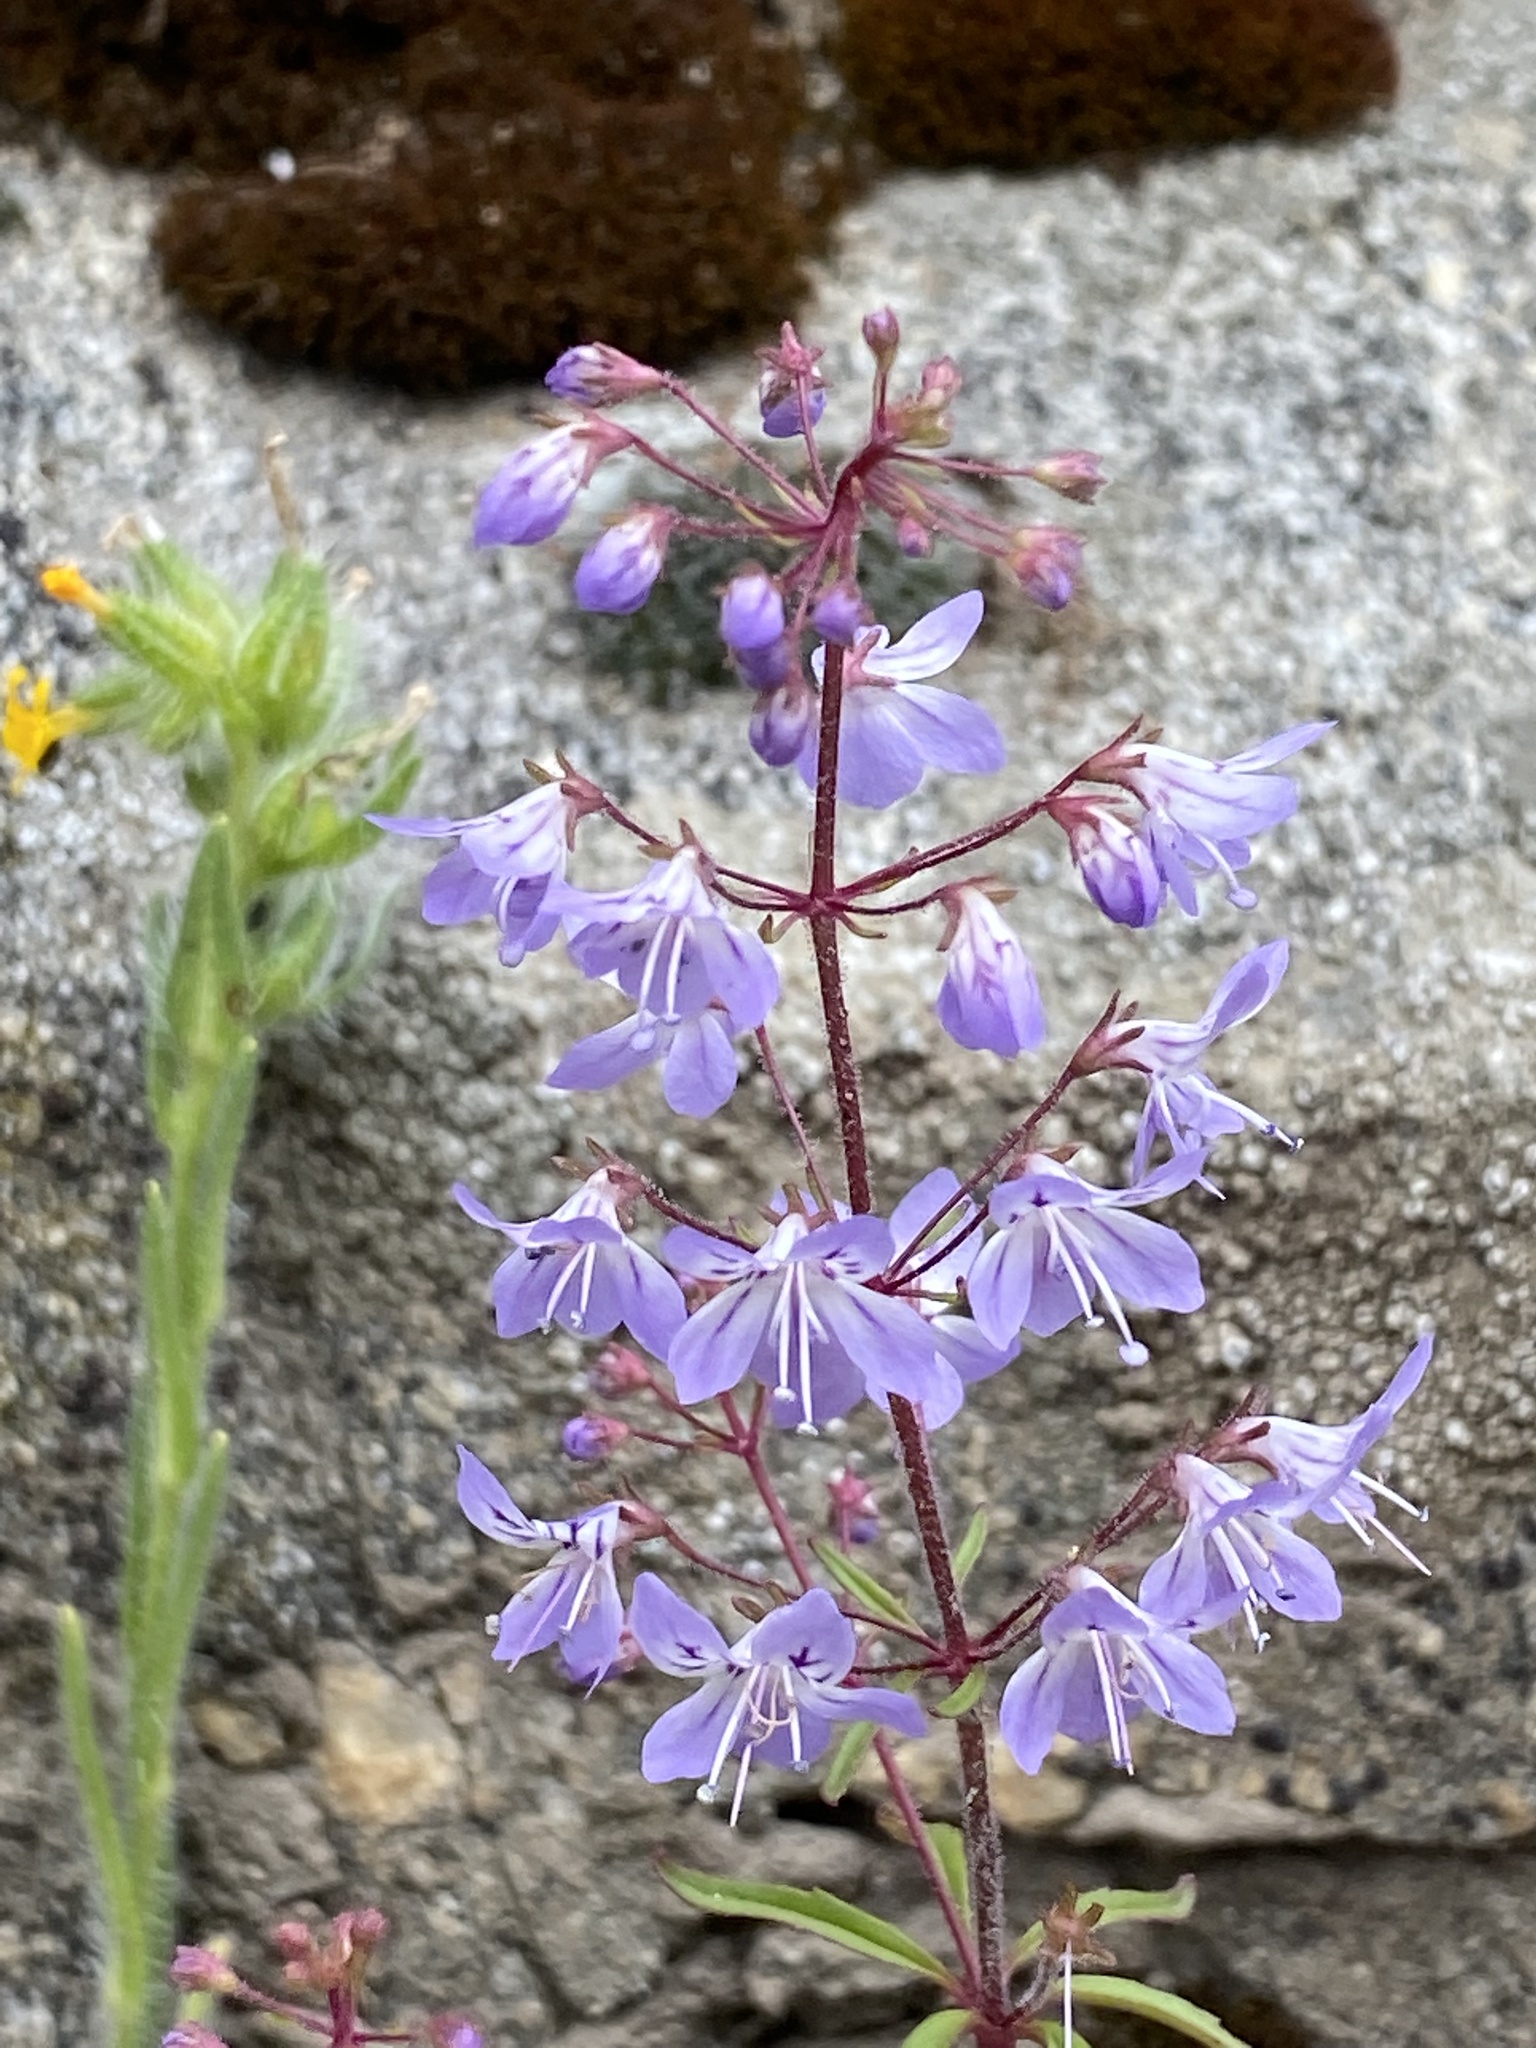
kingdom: Plantae
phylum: Tracheophyta
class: Magnoliopsida
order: Lamiales
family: Plantaginaceae
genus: Tonella
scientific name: Tonella floribunda
